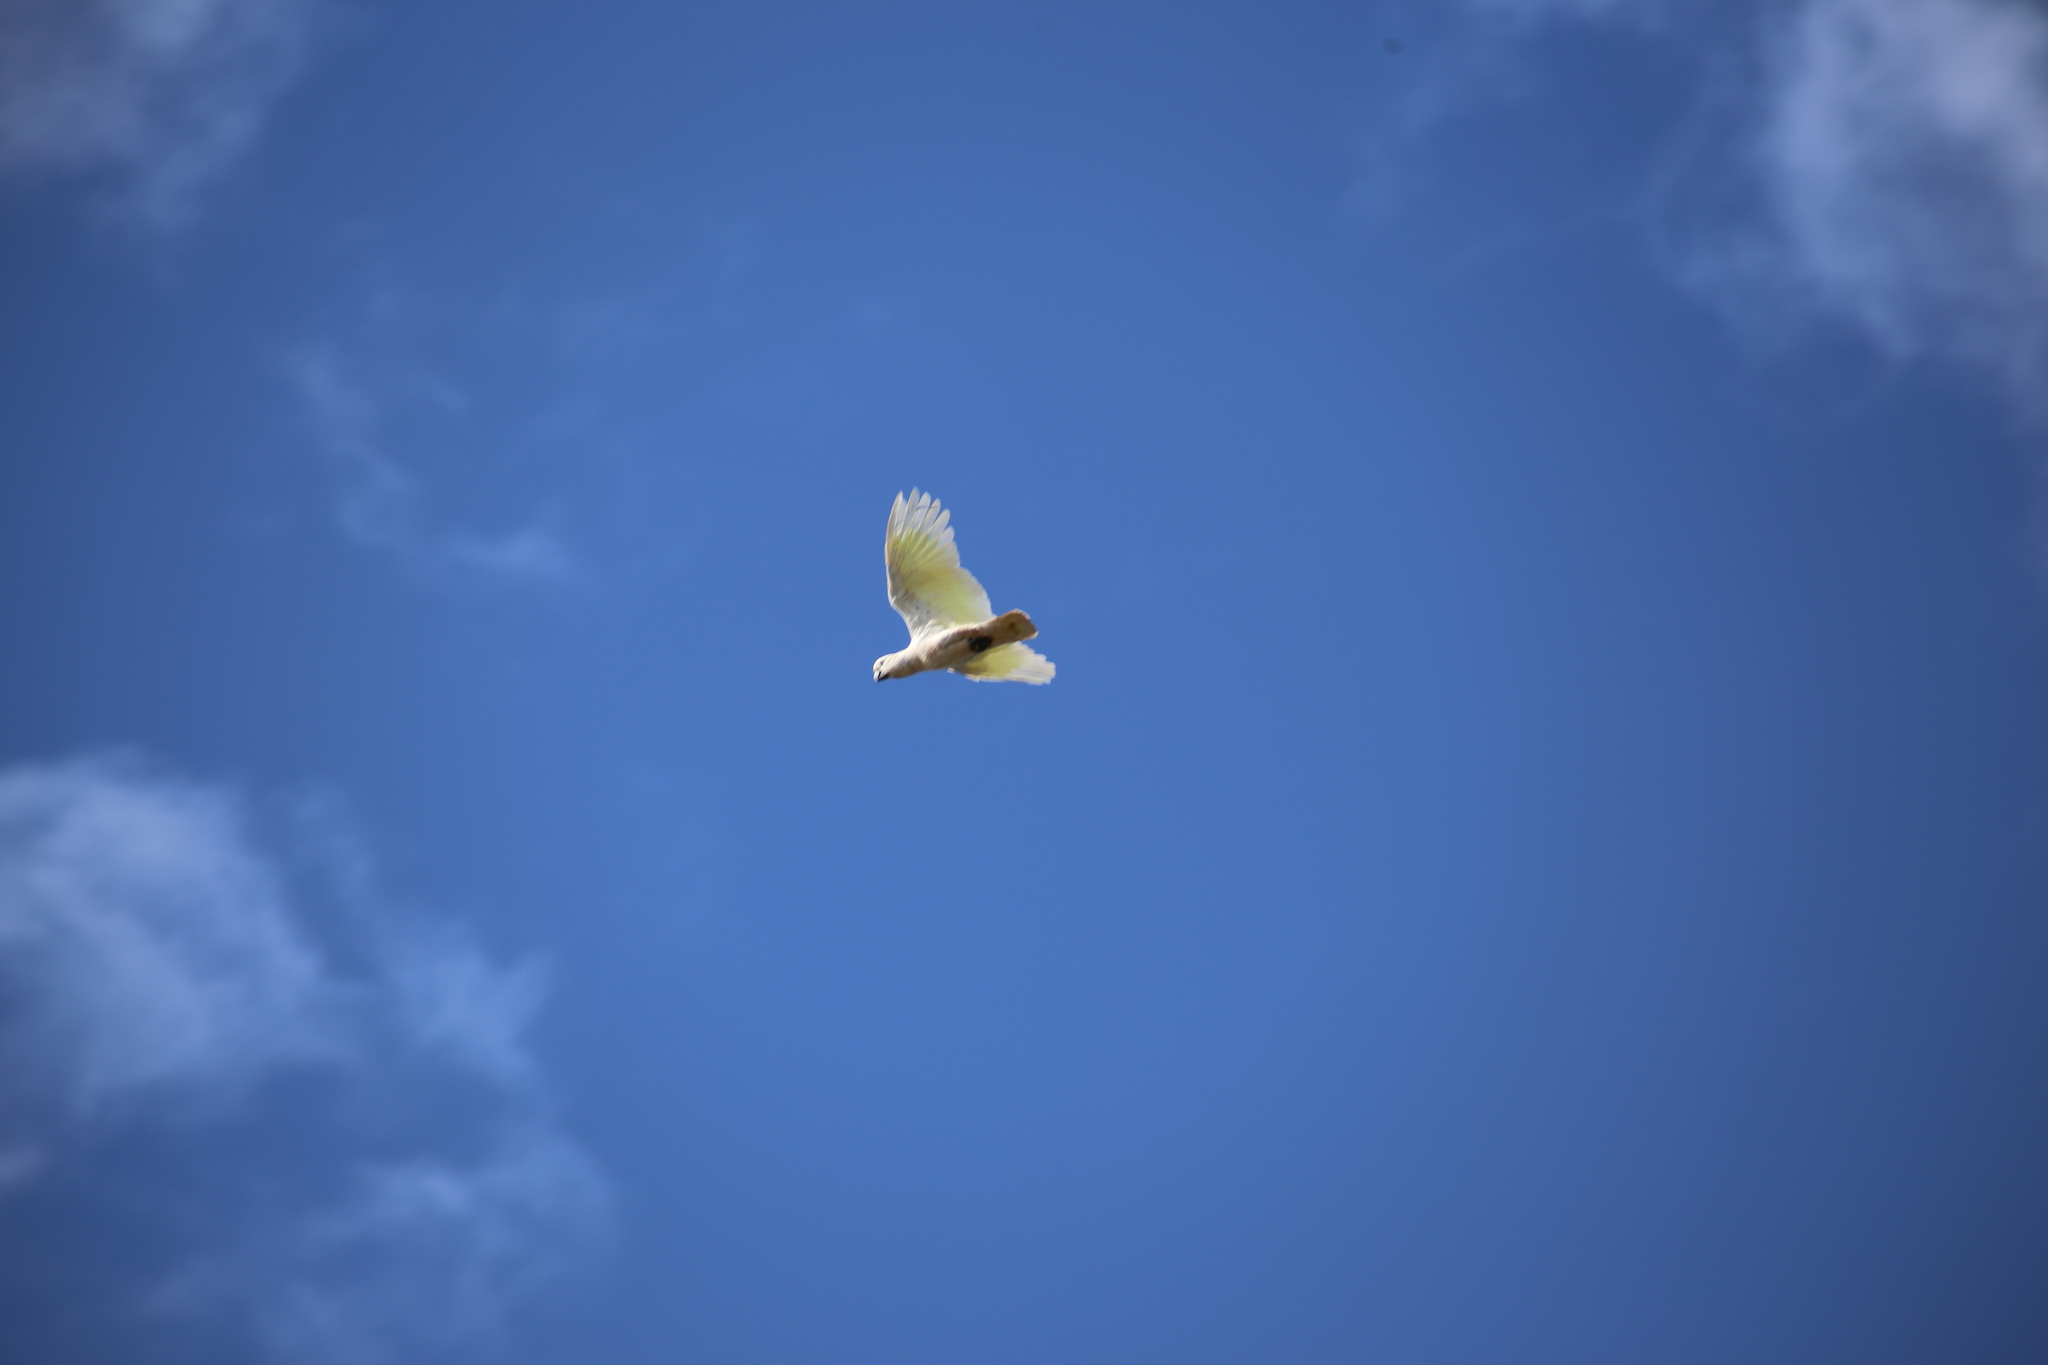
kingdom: Animalia
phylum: Chordata
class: Aves
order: Psittaciformes
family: Psittacidae
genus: Cacatua
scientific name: Cacatua galerita
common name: Sulphur-crested cockatoo
